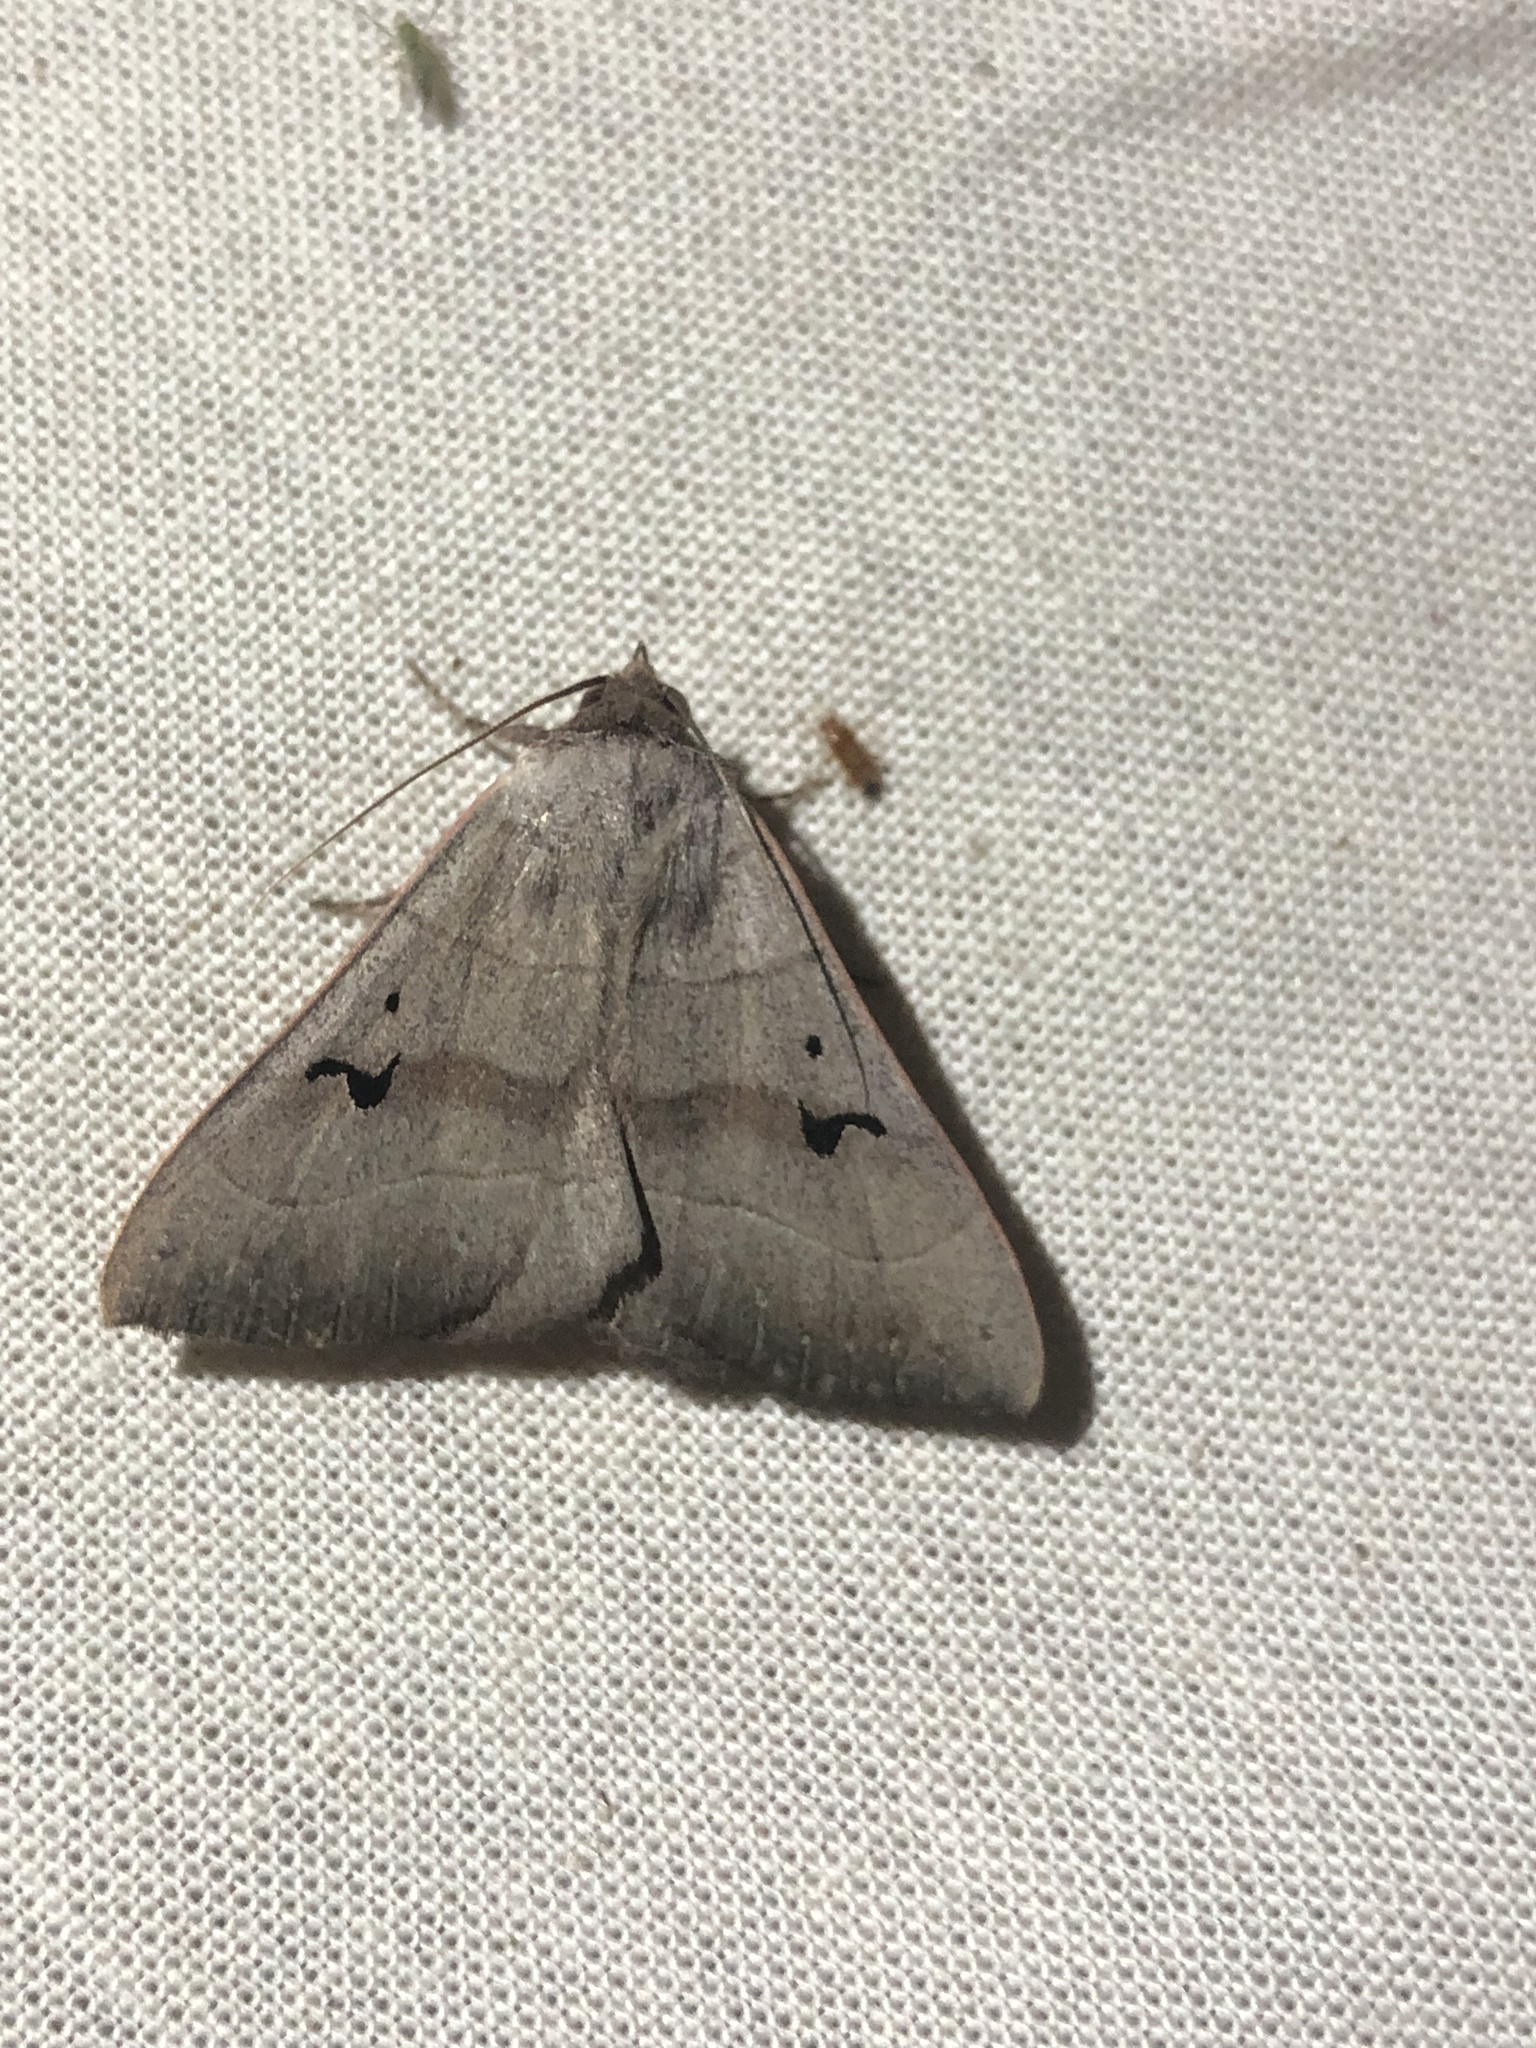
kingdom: Animalia
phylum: Arthropoda
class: Insecta
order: Lepidoptera
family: Erebidae
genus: Panopoda
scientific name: Panopoda carneicosta
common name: Brown panopoda moth
